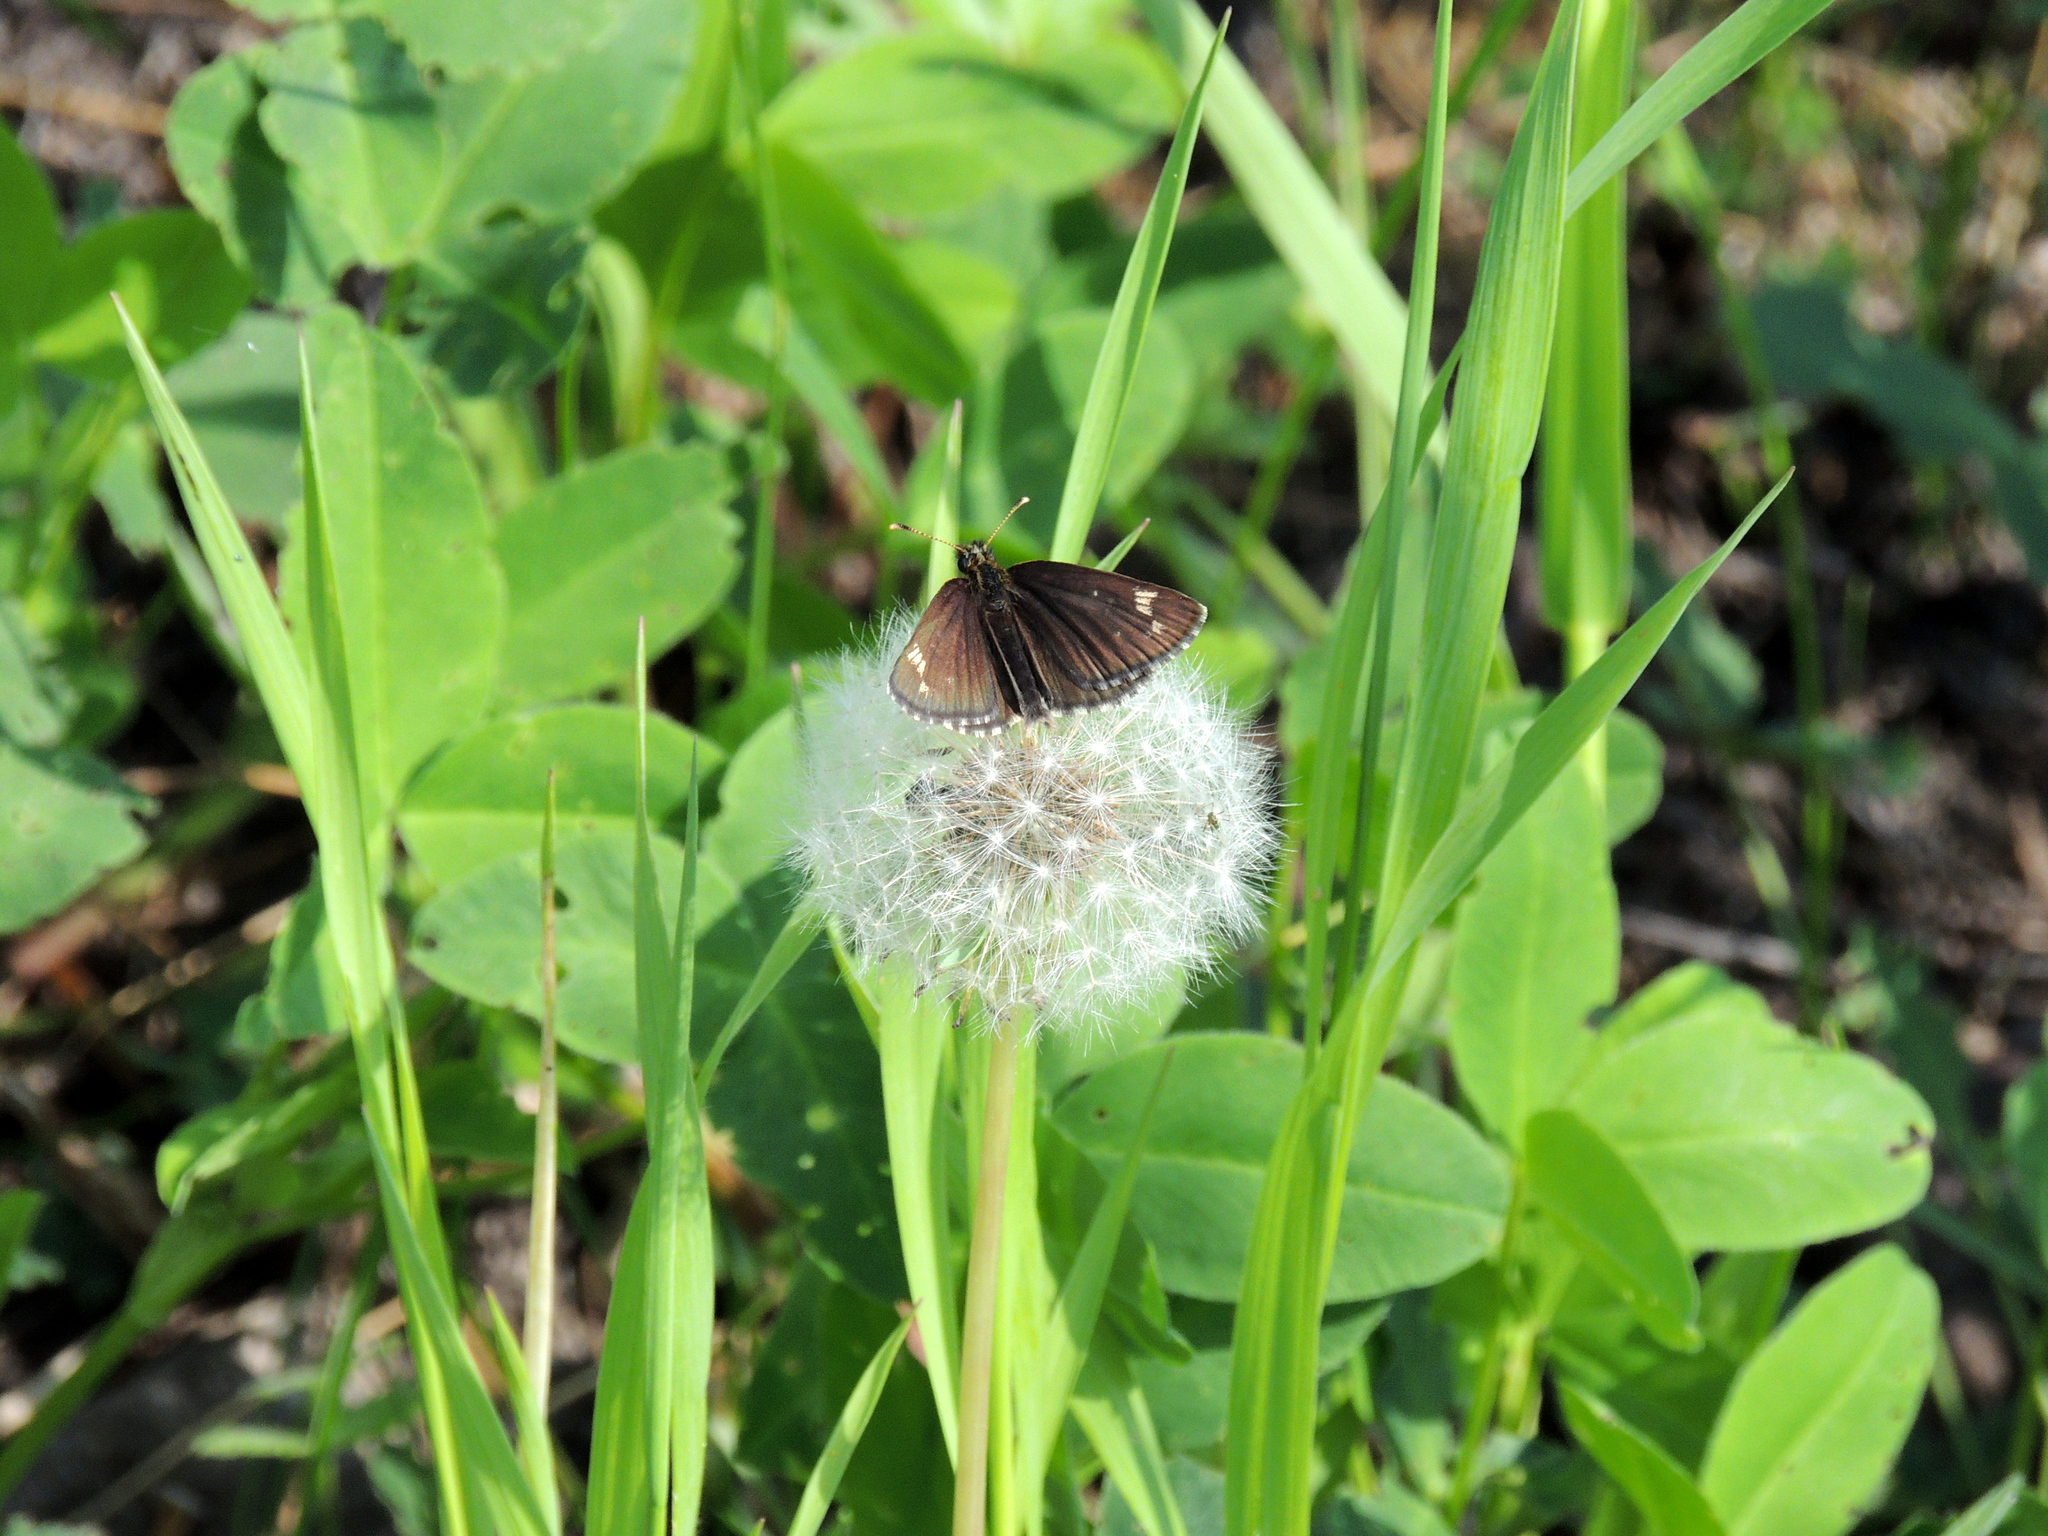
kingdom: Animalia
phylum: Arthropoda
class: Insecta
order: Lepidoptera
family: Hesperiidae
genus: Heteropterus
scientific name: Heteropterus morpheus
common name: Large chequered skipper
